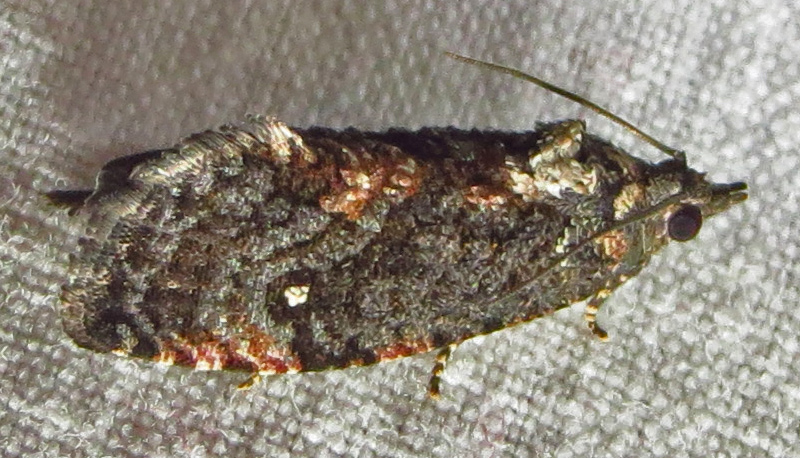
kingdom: Animalia
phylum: Arthropoda
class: Insecta
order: Lepidoptera
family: Tortricidae
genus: Gymnandrosoma
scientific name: Gymnandrosoma punctidiscanum
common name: Dotted ecdytolopha moth
